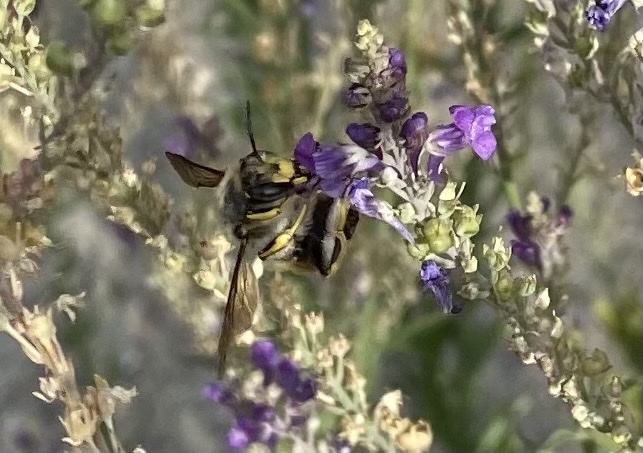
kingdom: Animalia
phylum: Arthropoda
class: Insecta
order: Hymenoptera
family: Megachilidae
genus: Anthidium
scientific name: Anthidium manicatum
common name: Wool carder bee
